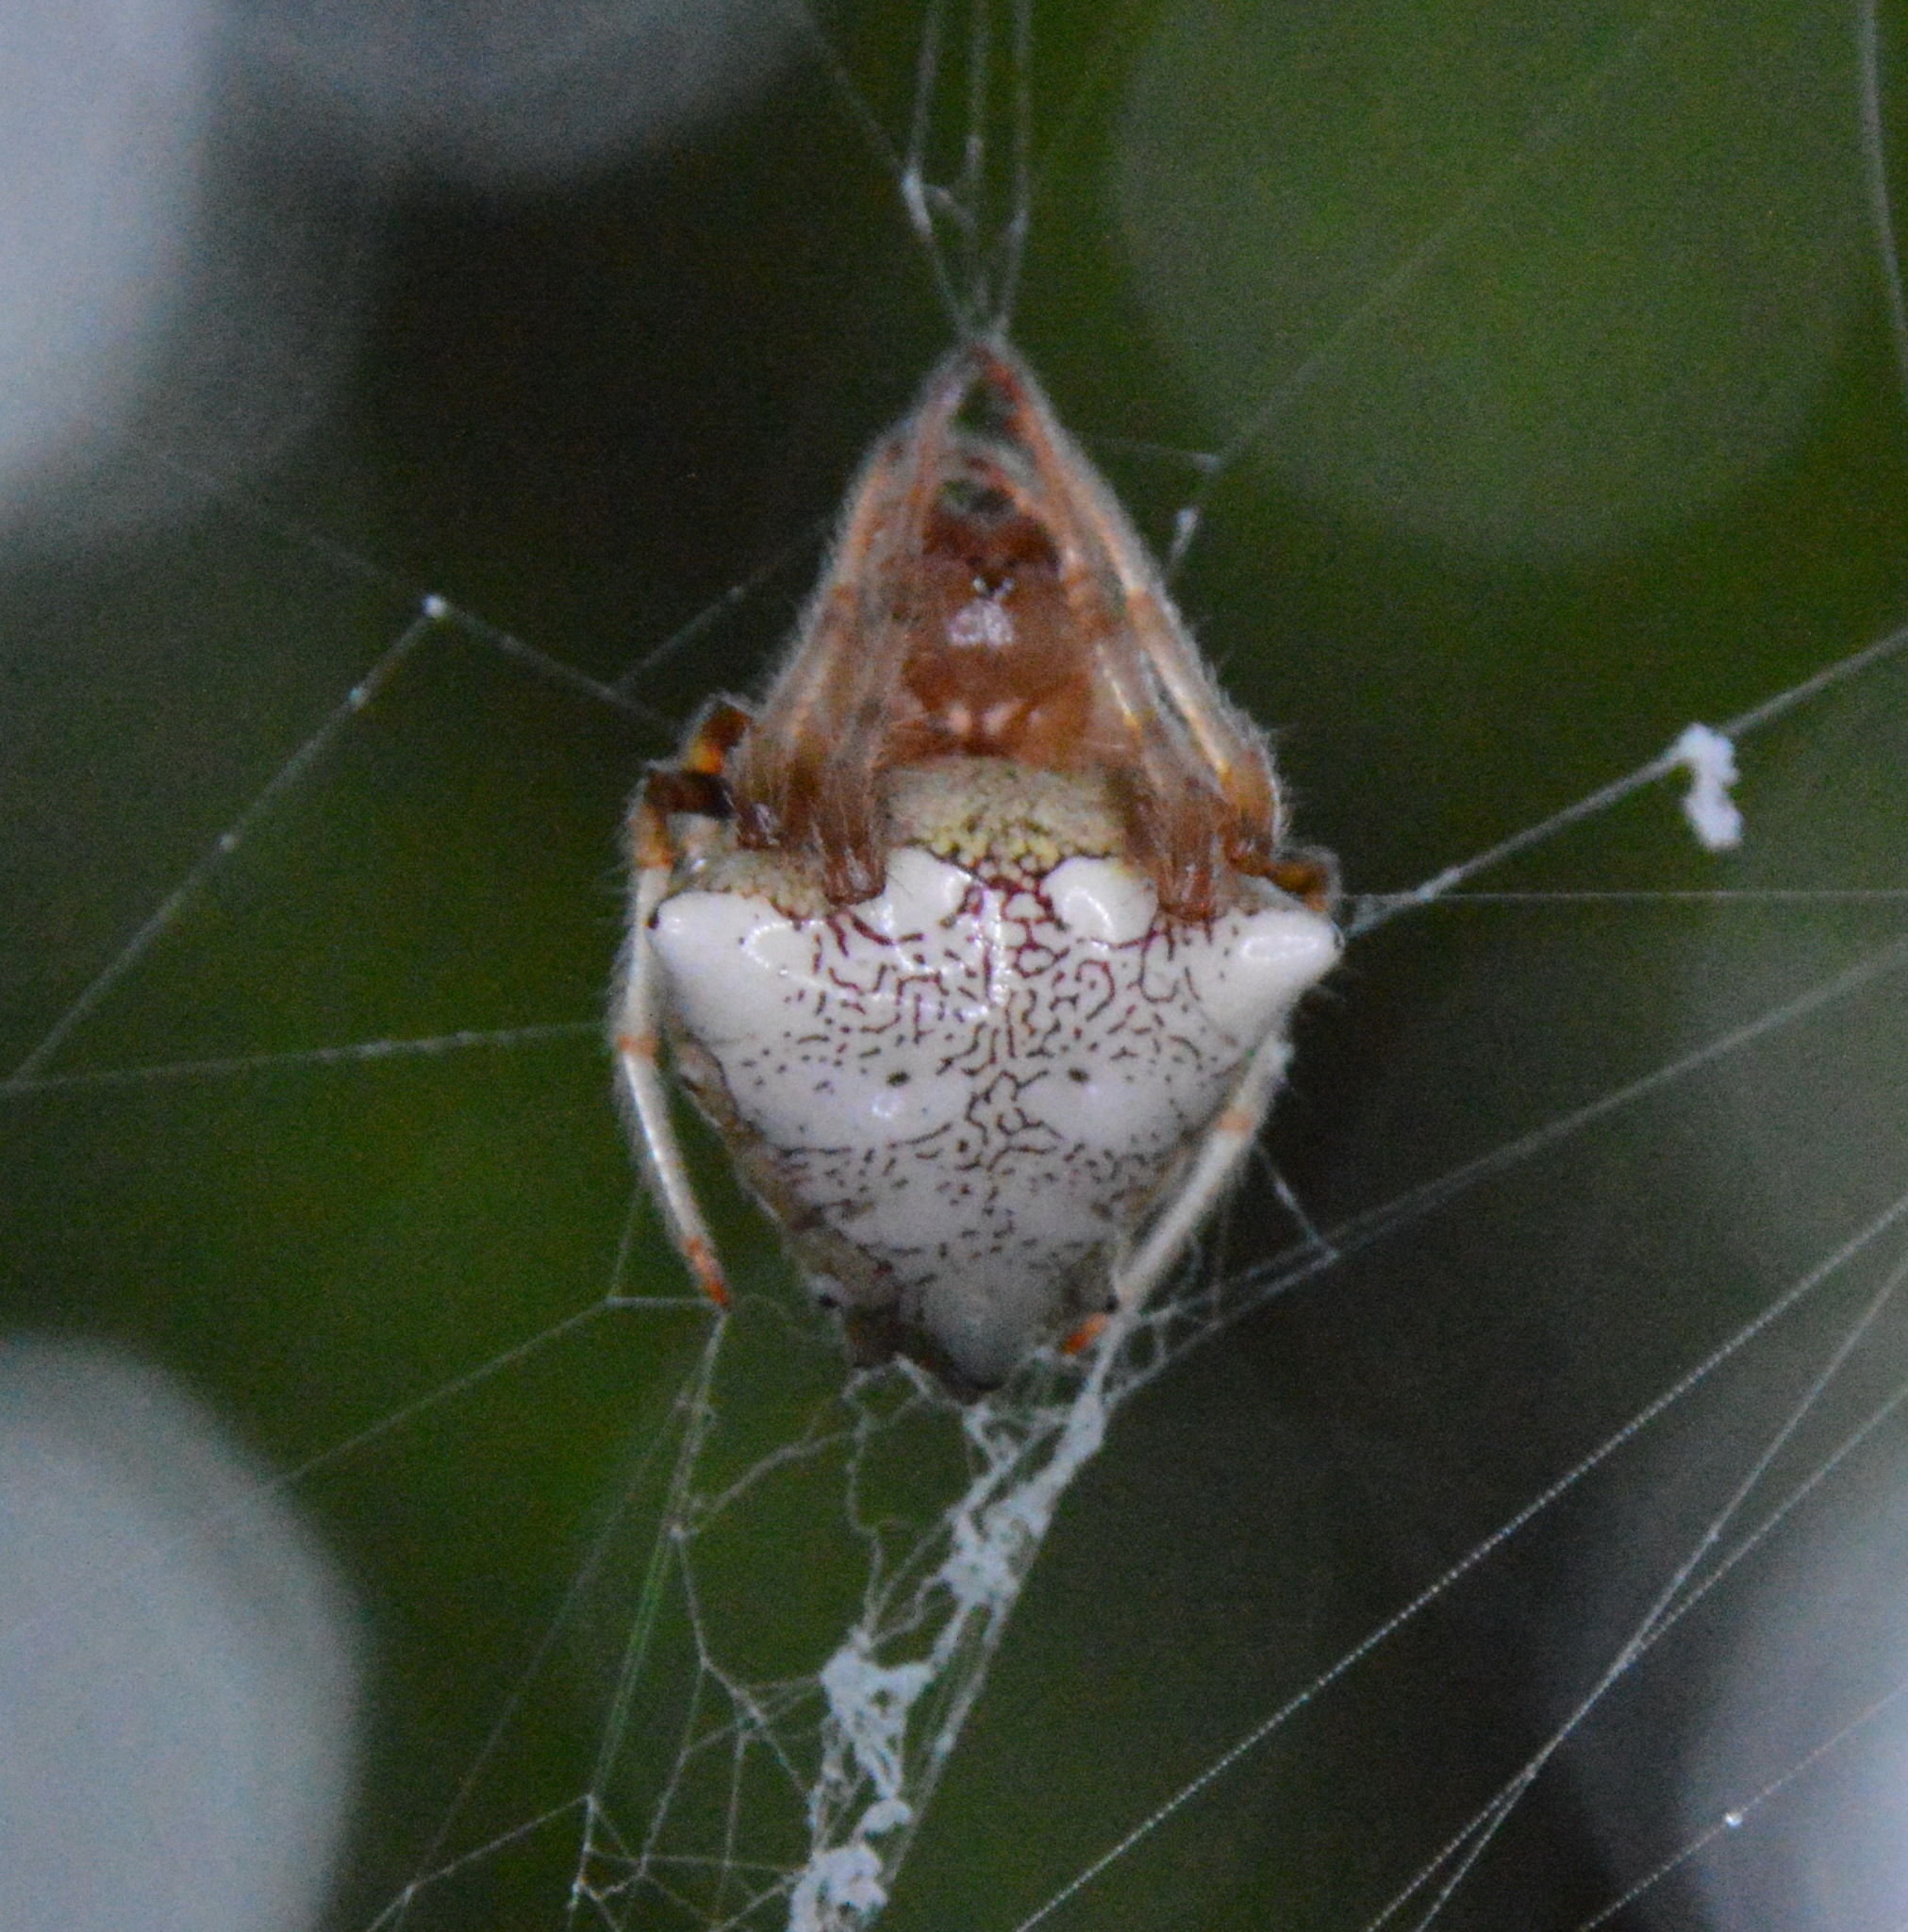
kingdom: Animalia
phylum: Arthropoda
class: Arachnida
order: Araneae
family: Araneidae
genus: Verrucosa
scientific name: Verrucosa arenata
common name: Orb weavers
